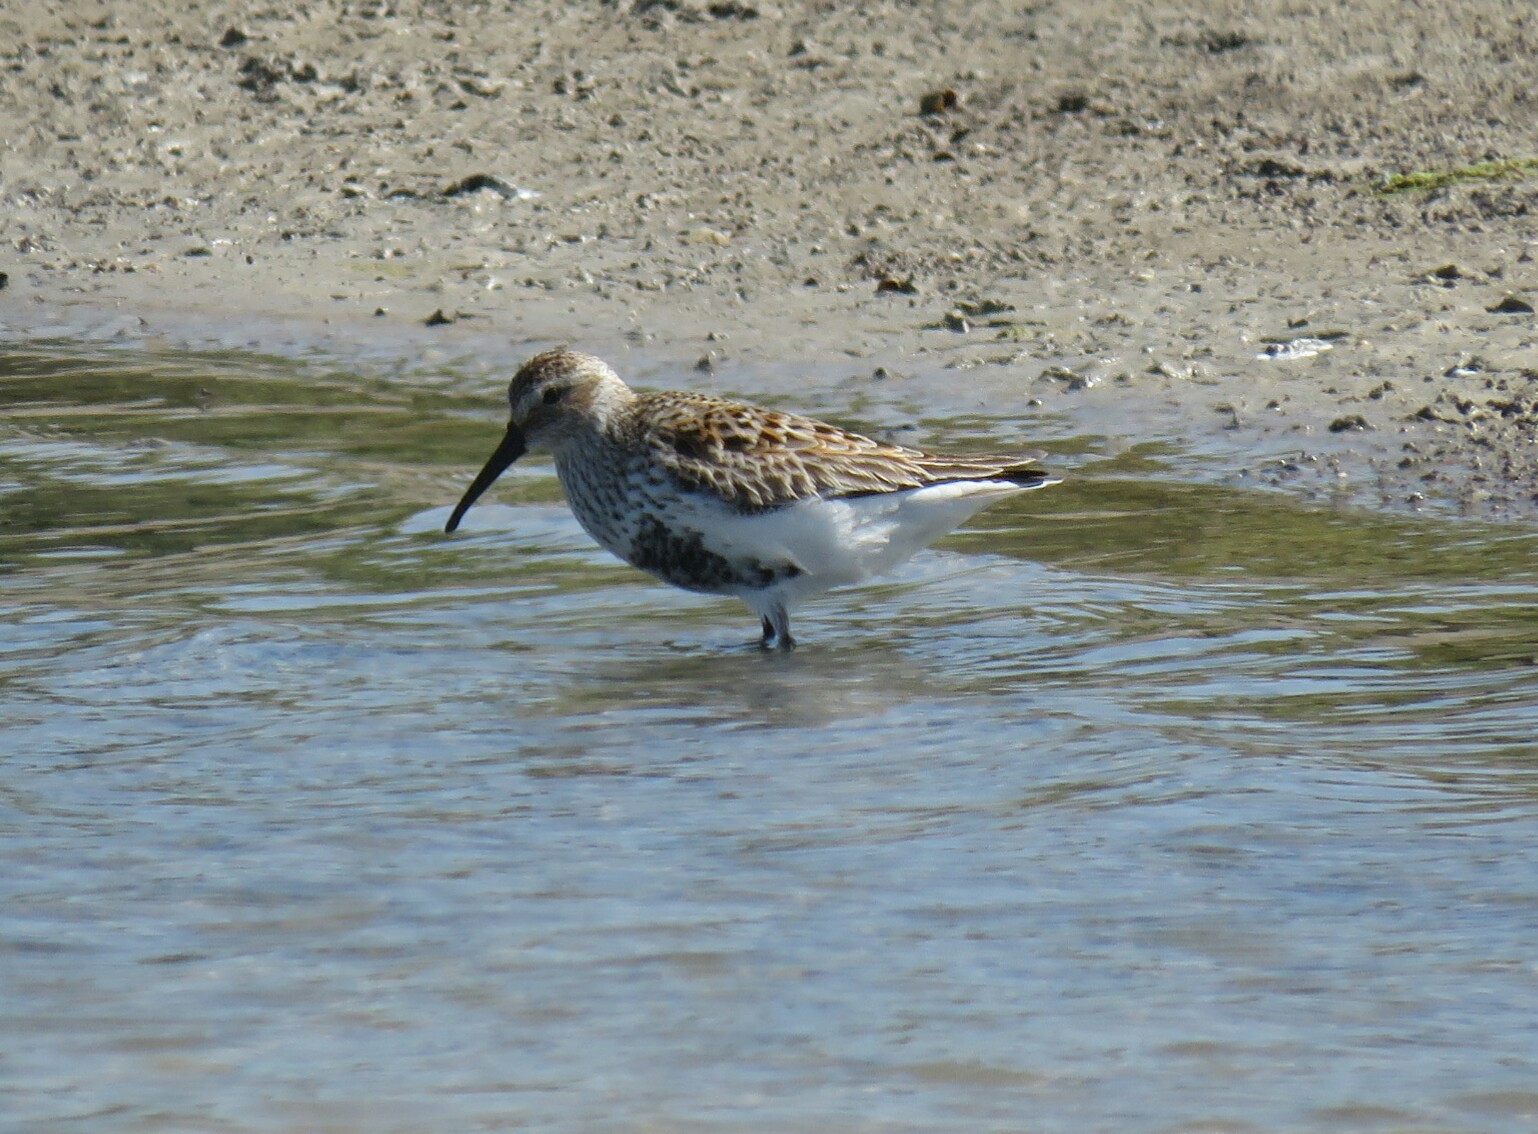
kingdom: Animalia
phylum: Chordata
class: Aves
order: Charadriiformes
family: Scolopacidae
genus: Calidris
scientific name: Calidris alpina
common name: Dunlin
